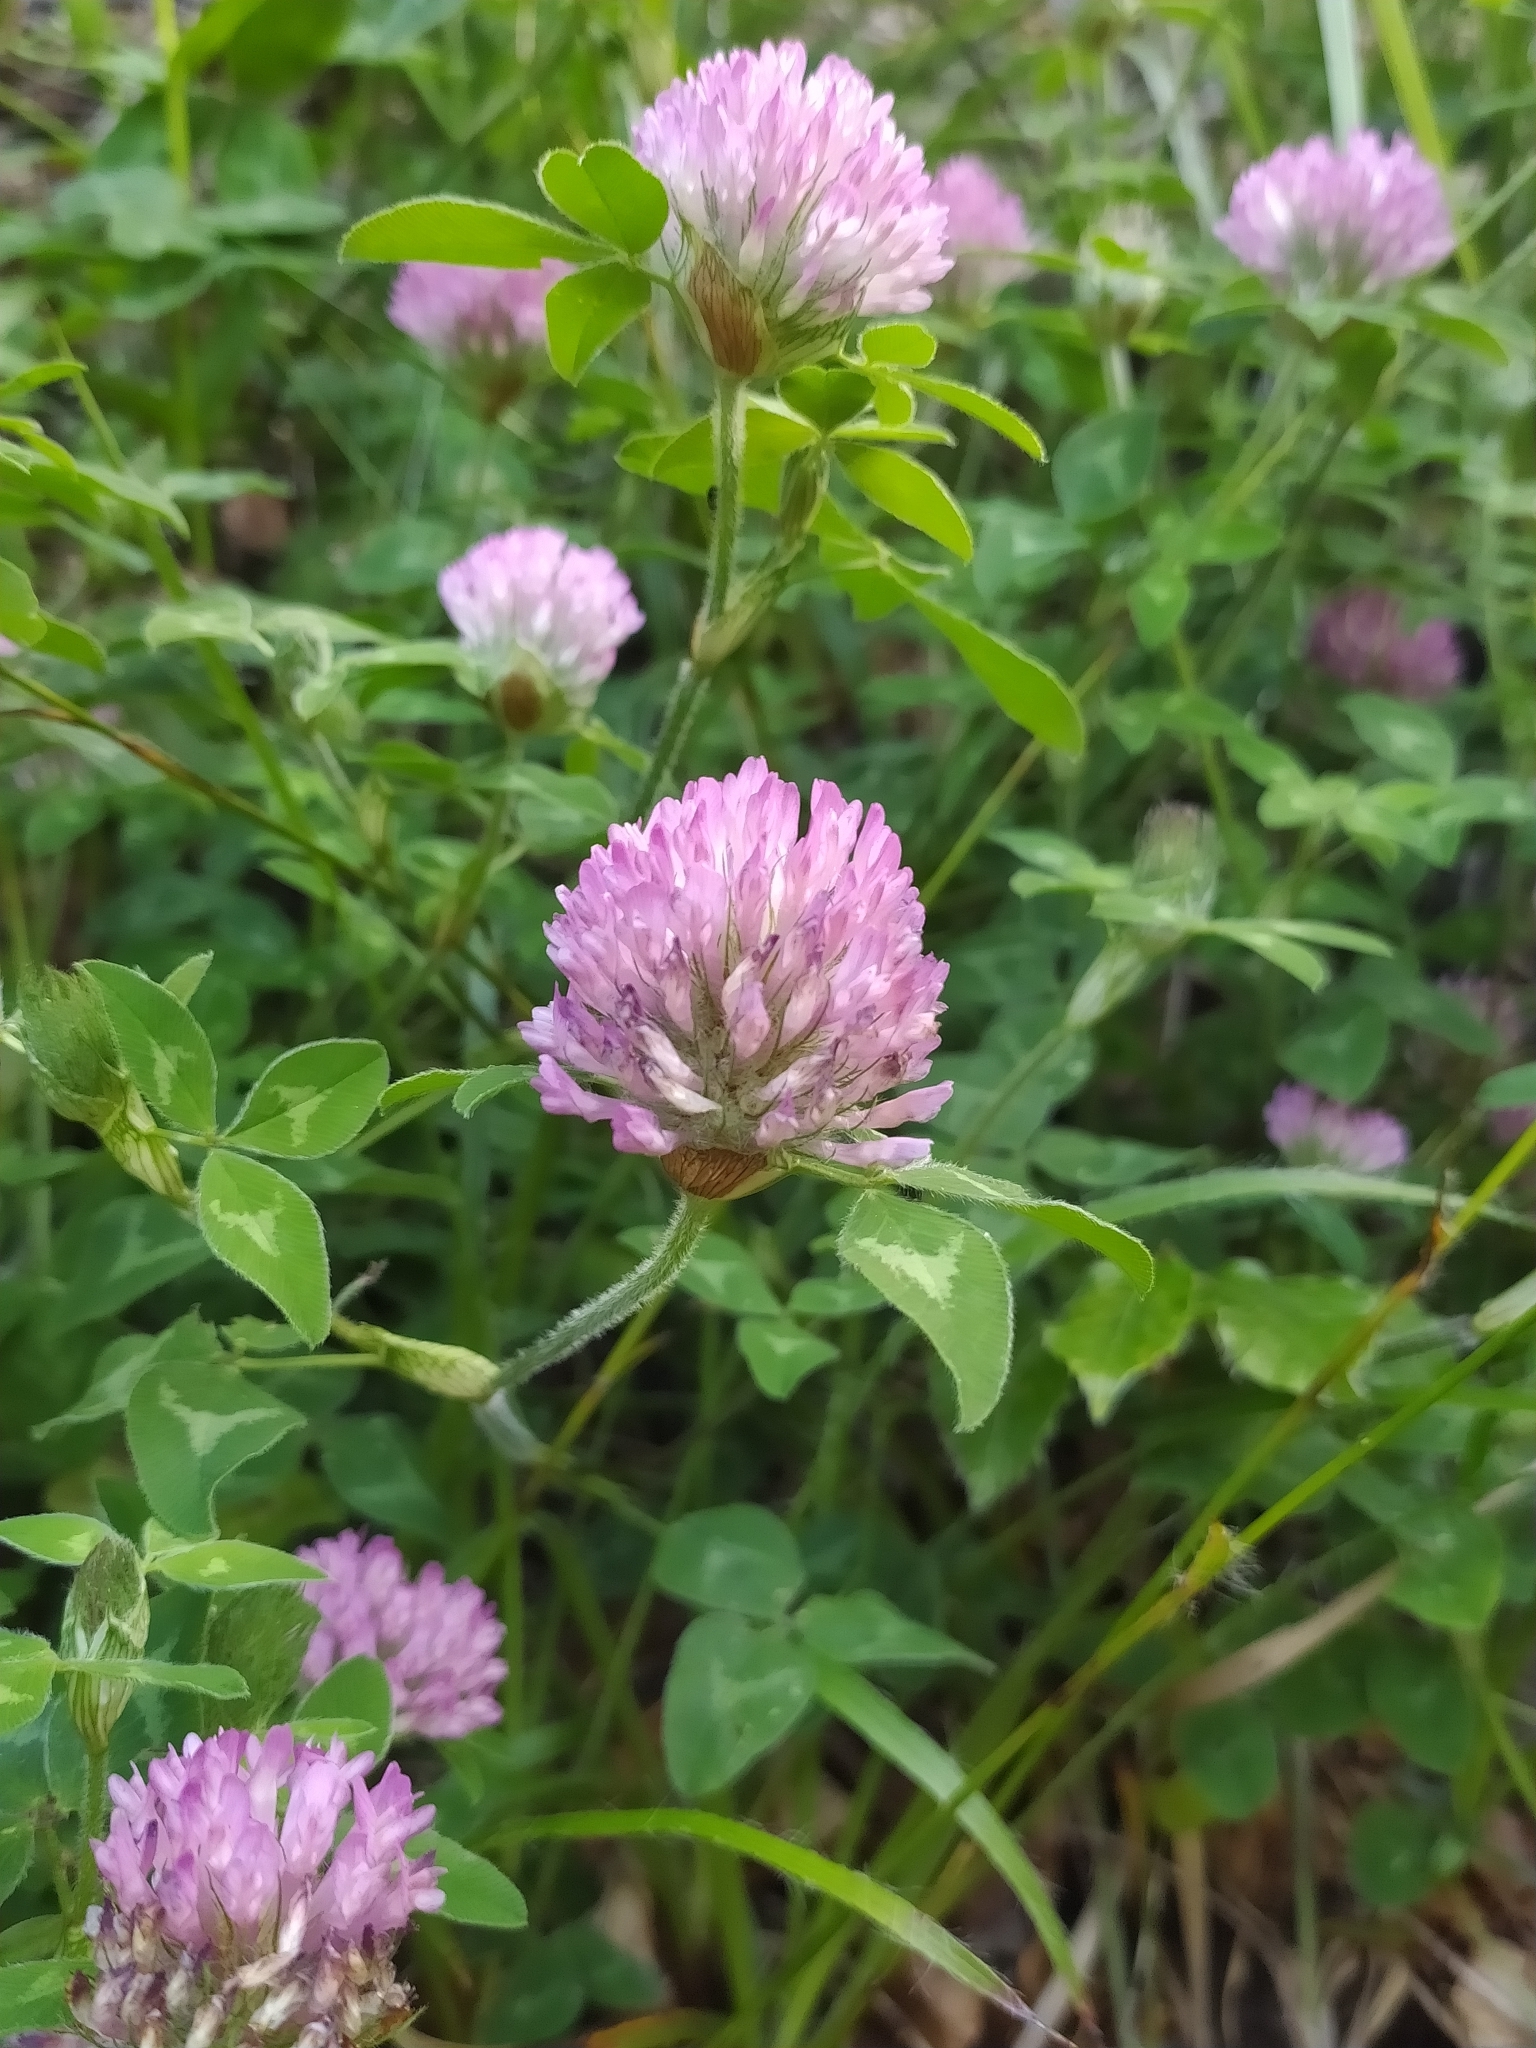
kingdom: Plantae
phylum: Tracheophyta
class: Magnoliopsida
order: Fabales
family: Fabaceae
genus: Trifolium
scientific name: Trifolium pratense
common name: Red clover
